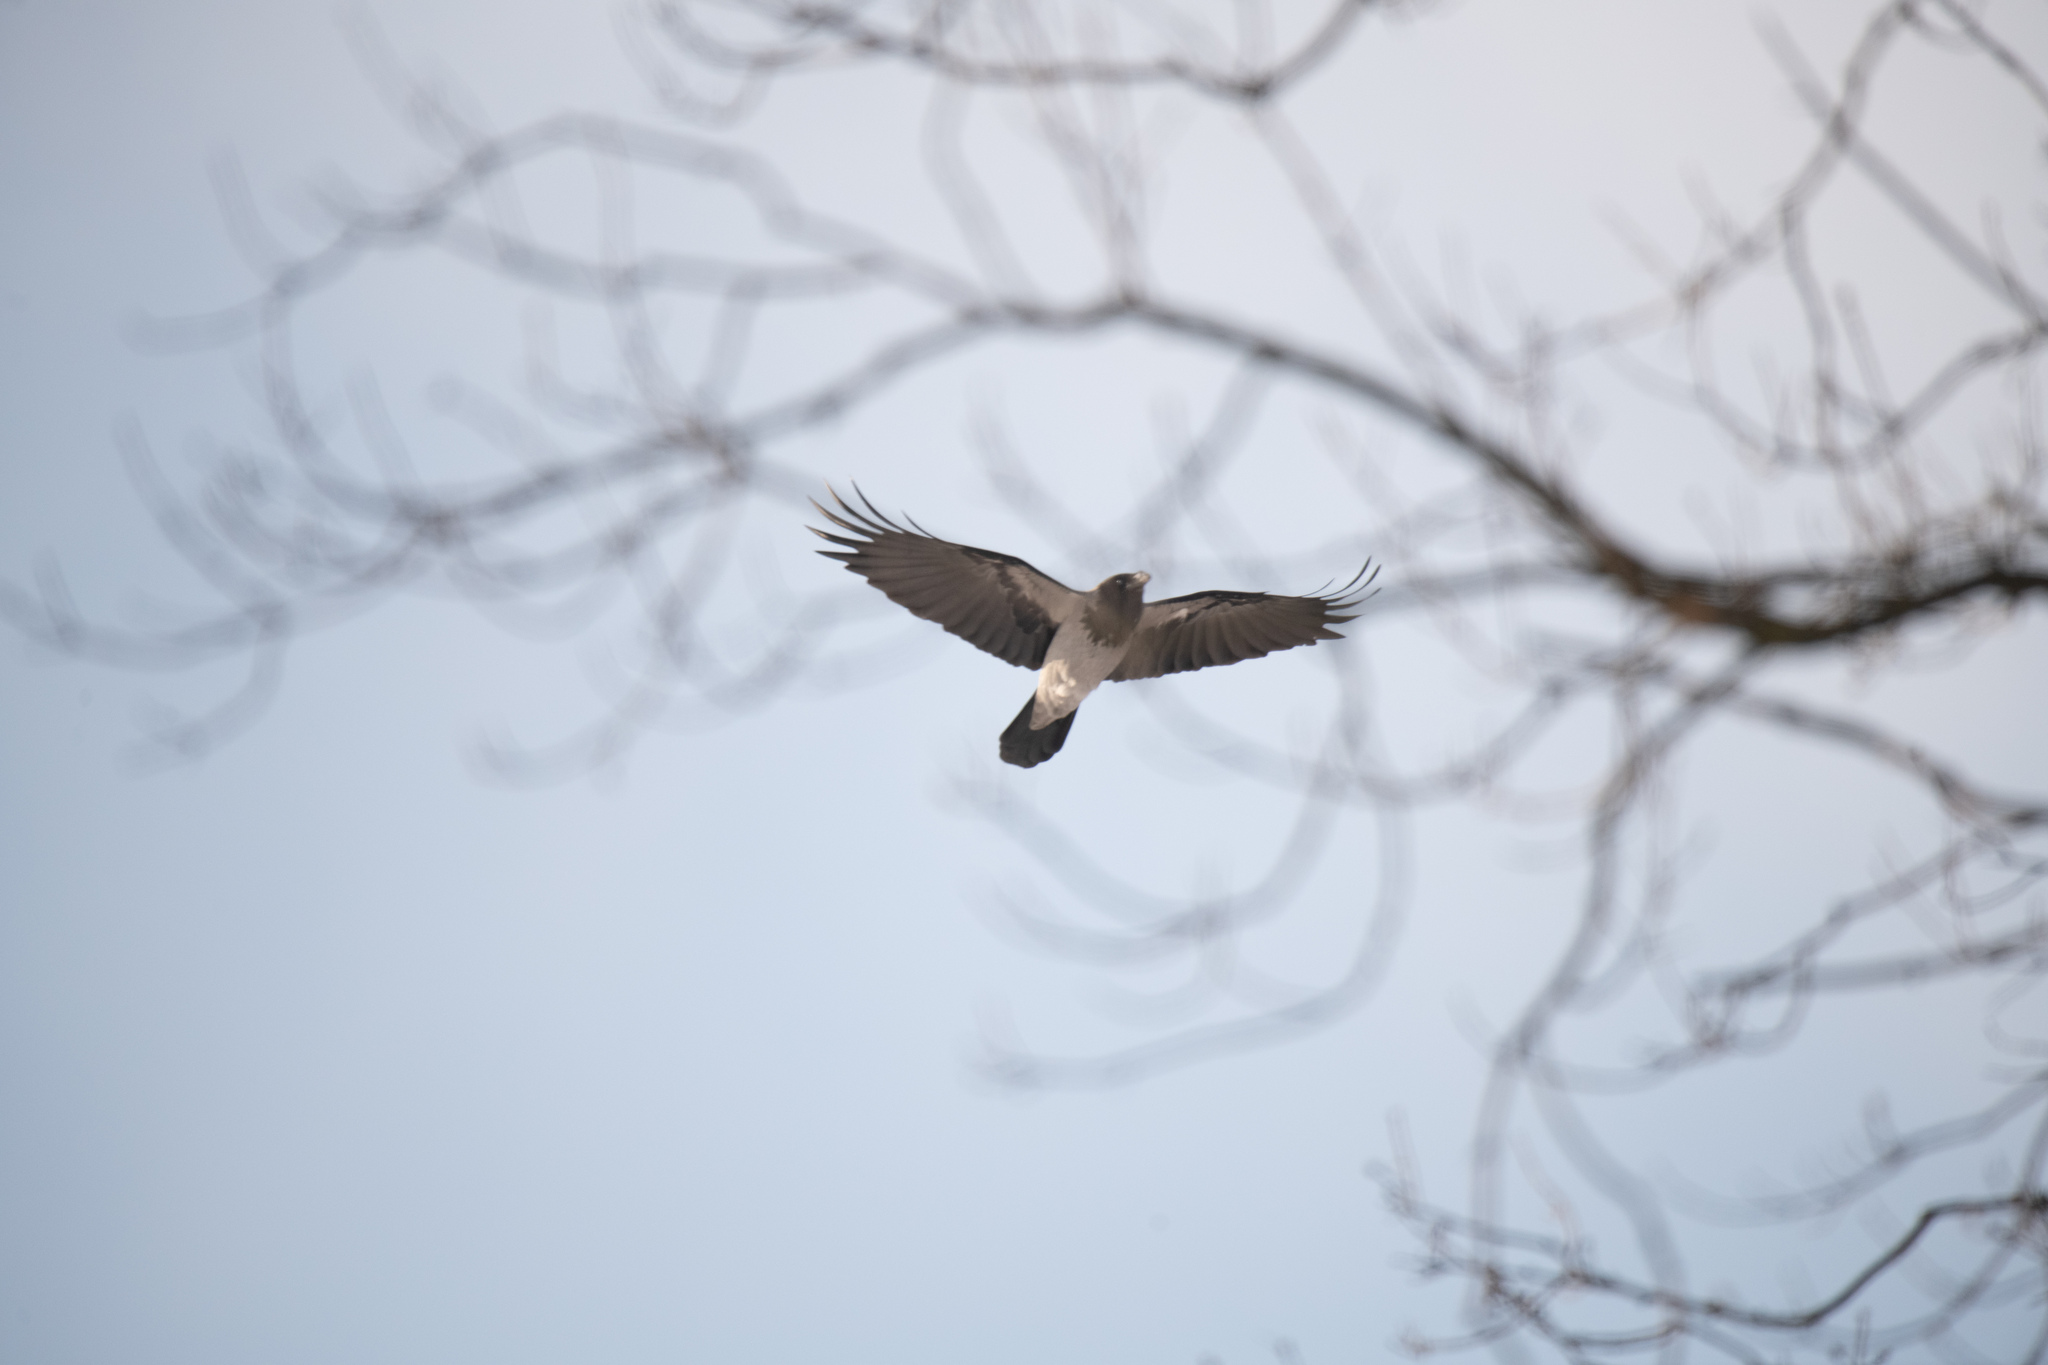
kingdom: Animalia
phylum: Chordata
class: Aves
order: Passeriformes
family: Corvidae
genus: Corvus
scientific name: Corvus cornix
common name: Hooded crow
